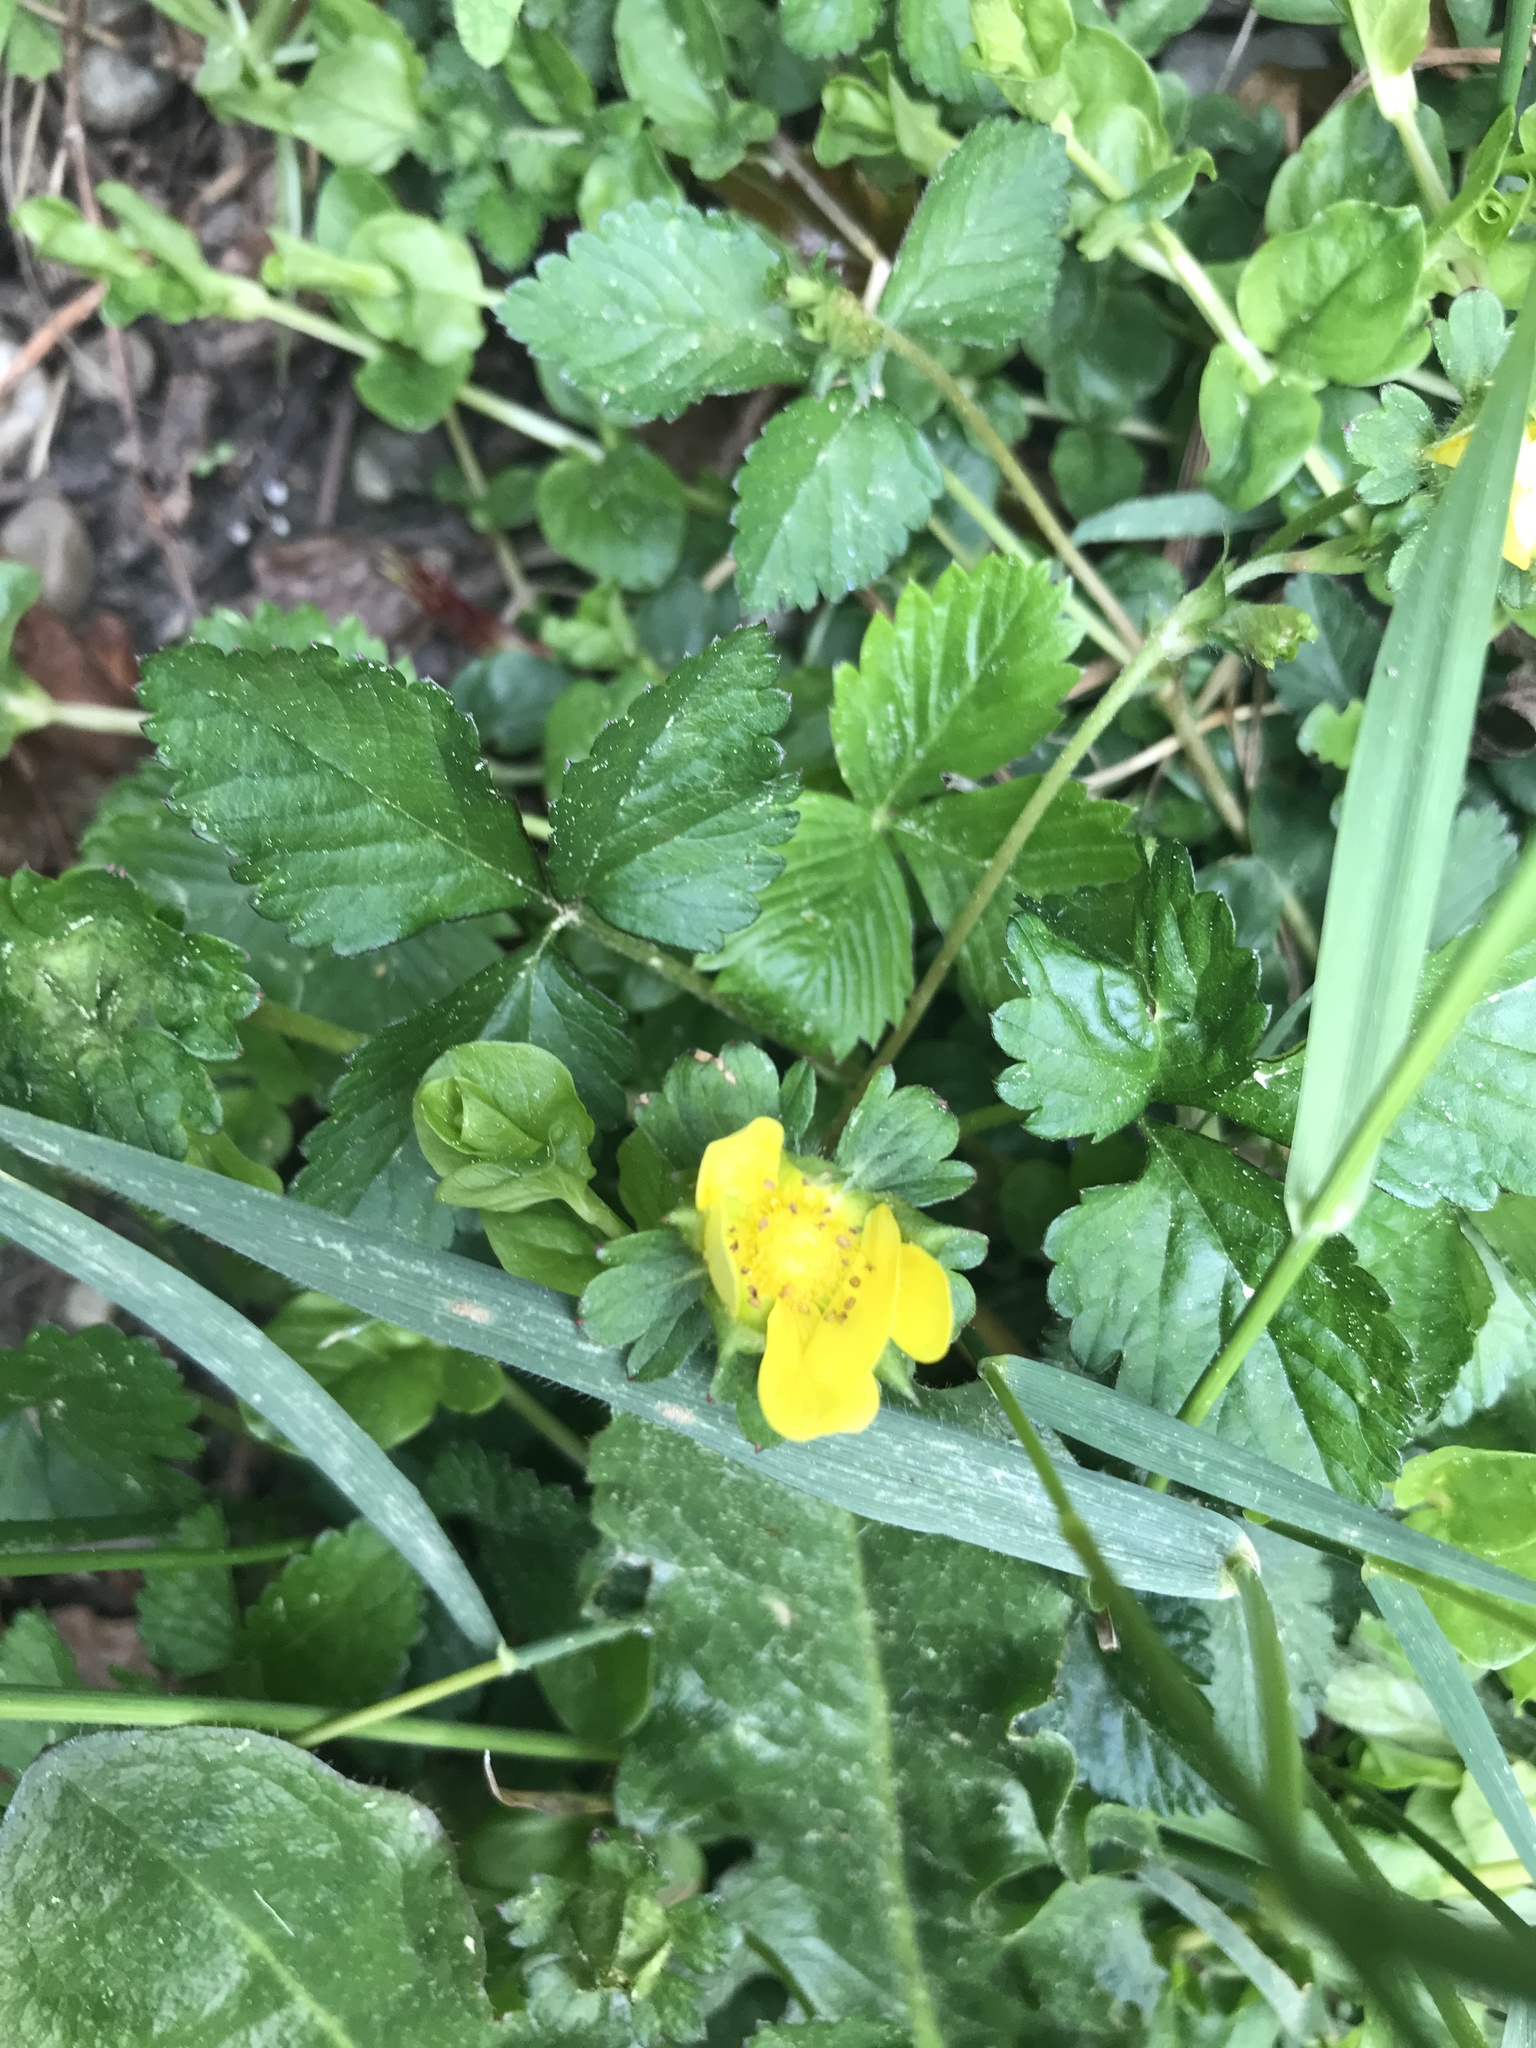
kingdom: Plantae
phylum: Tracheophyta
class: Magnoliopsida
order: Rosales
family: Rosaceae
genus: Potentilla
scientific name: Potentilla indica
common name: Yellow-flowered strawberry
